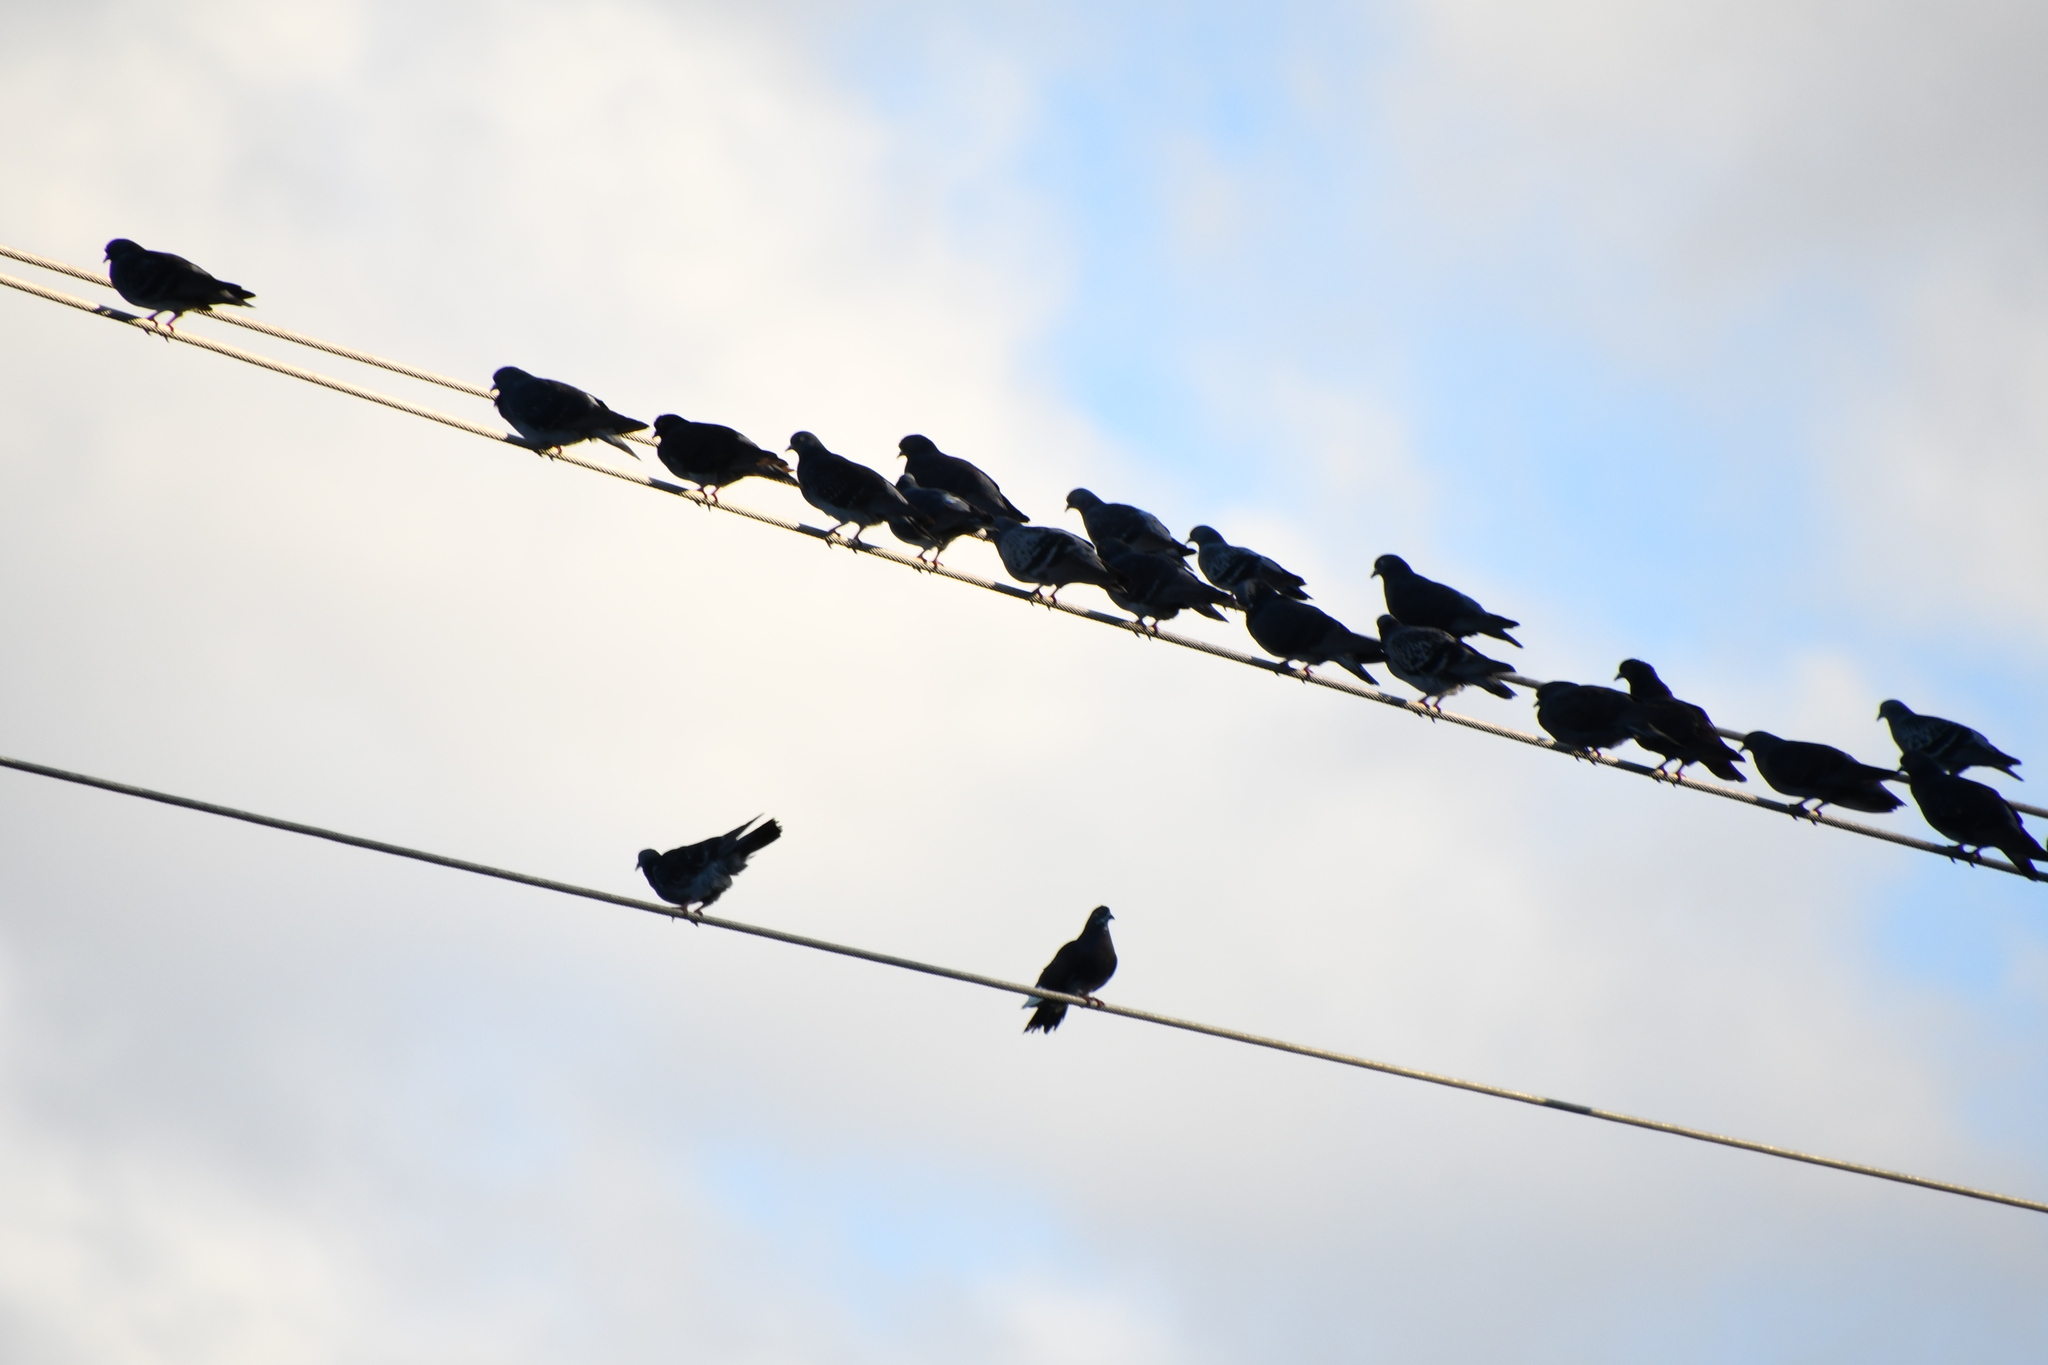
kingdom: Animalia
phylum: Chordata
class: Aves
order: Columbiformes
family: Columbidae
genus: Columba
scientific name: Columba livia
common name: Rock pigeon
